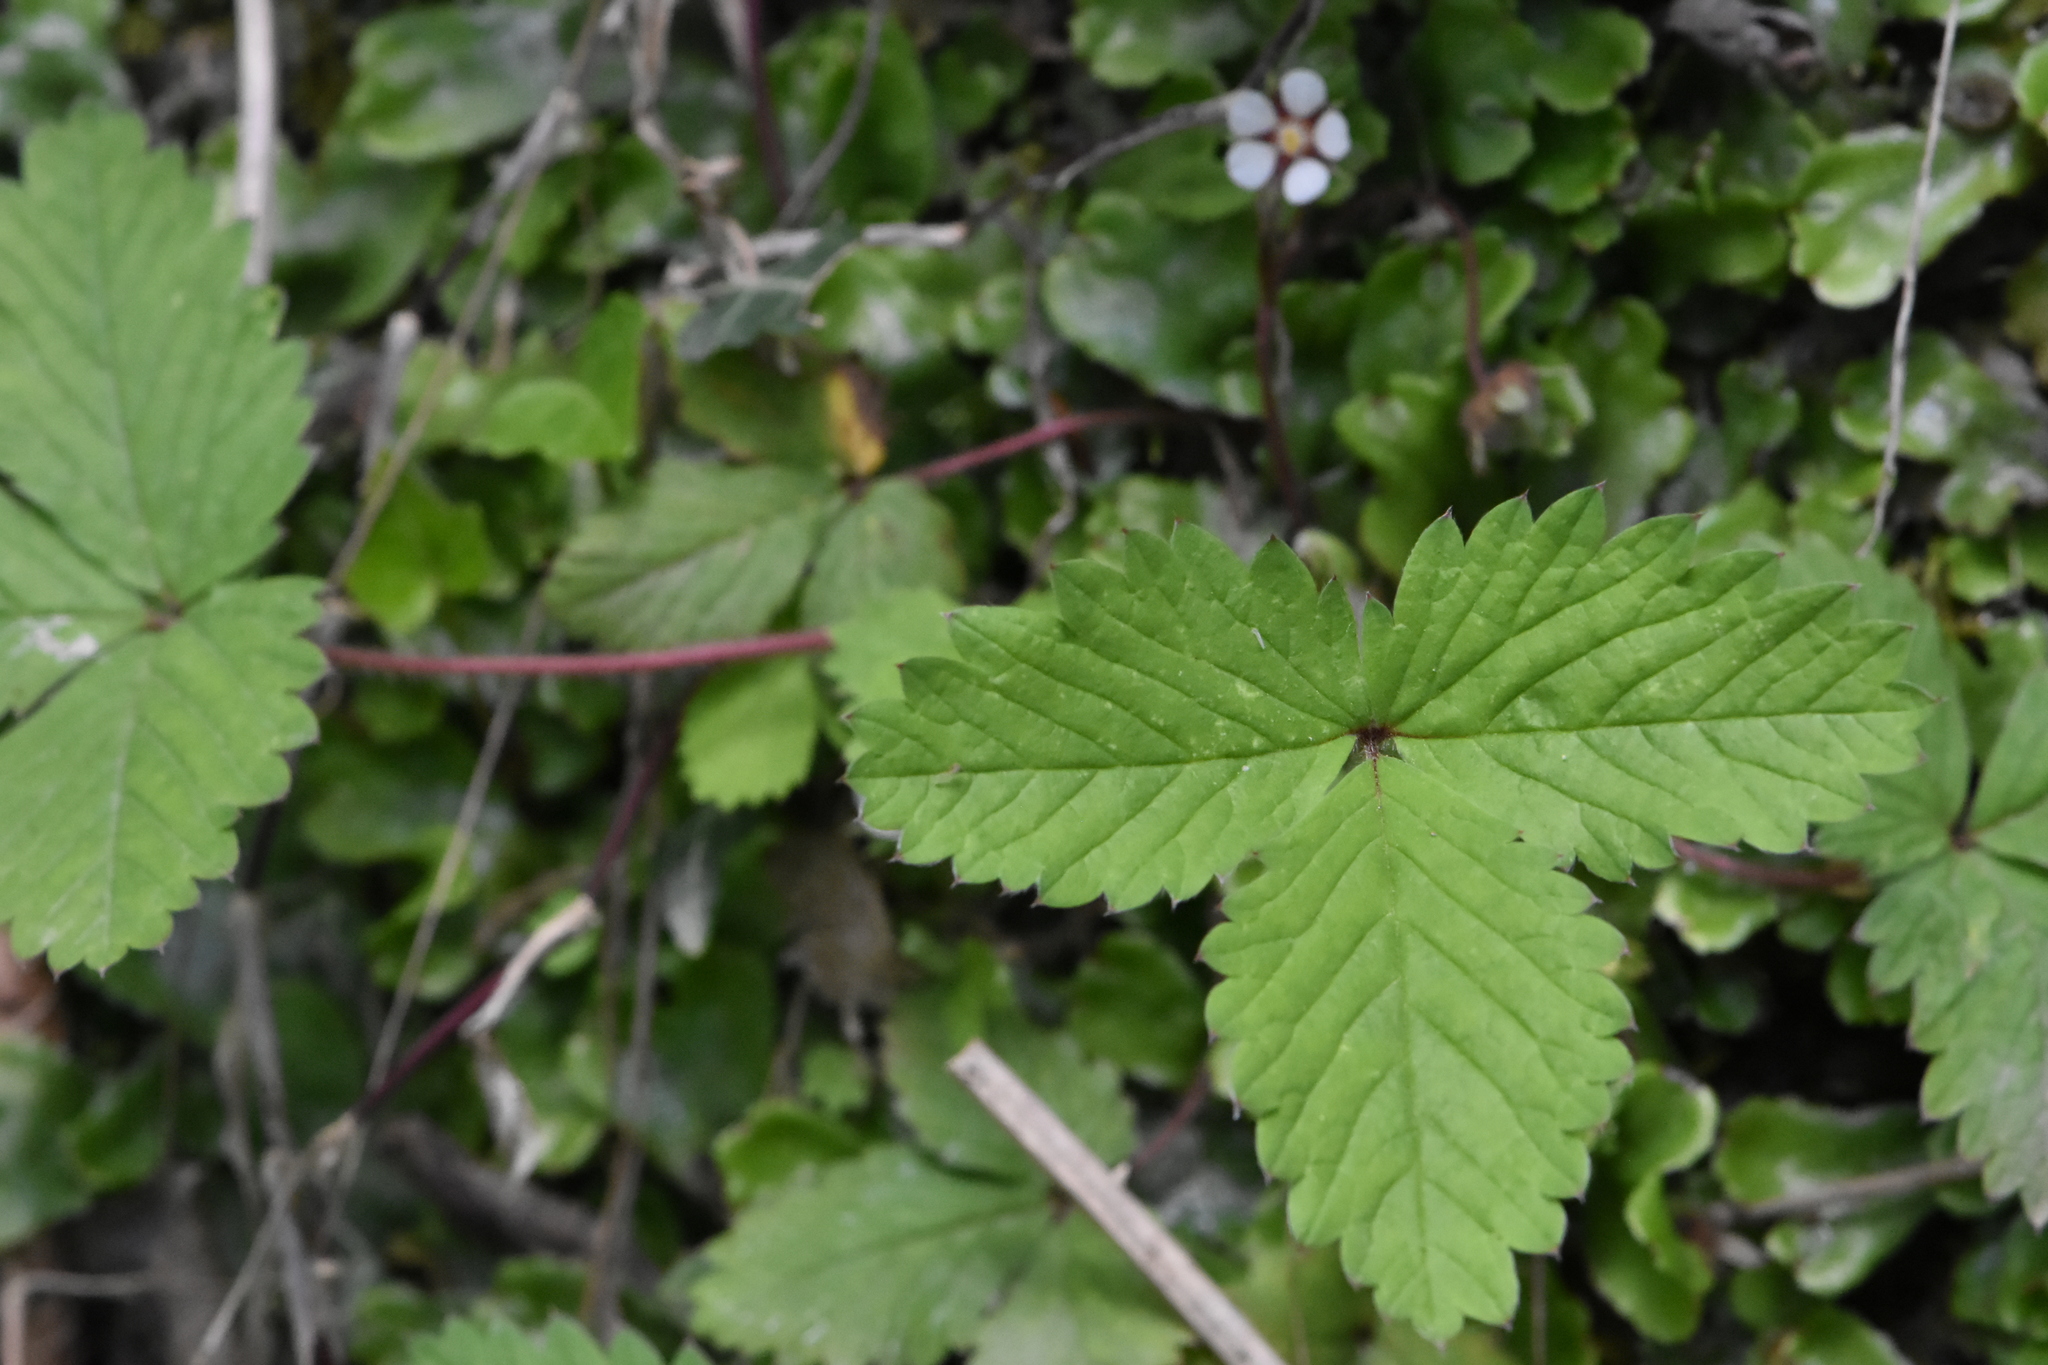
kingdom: Plantae
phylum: Tracheophyta
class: Magnoliopsida
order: Rosales
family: Rosaceae
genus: Potentilla
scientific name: Potentilla micrantha
